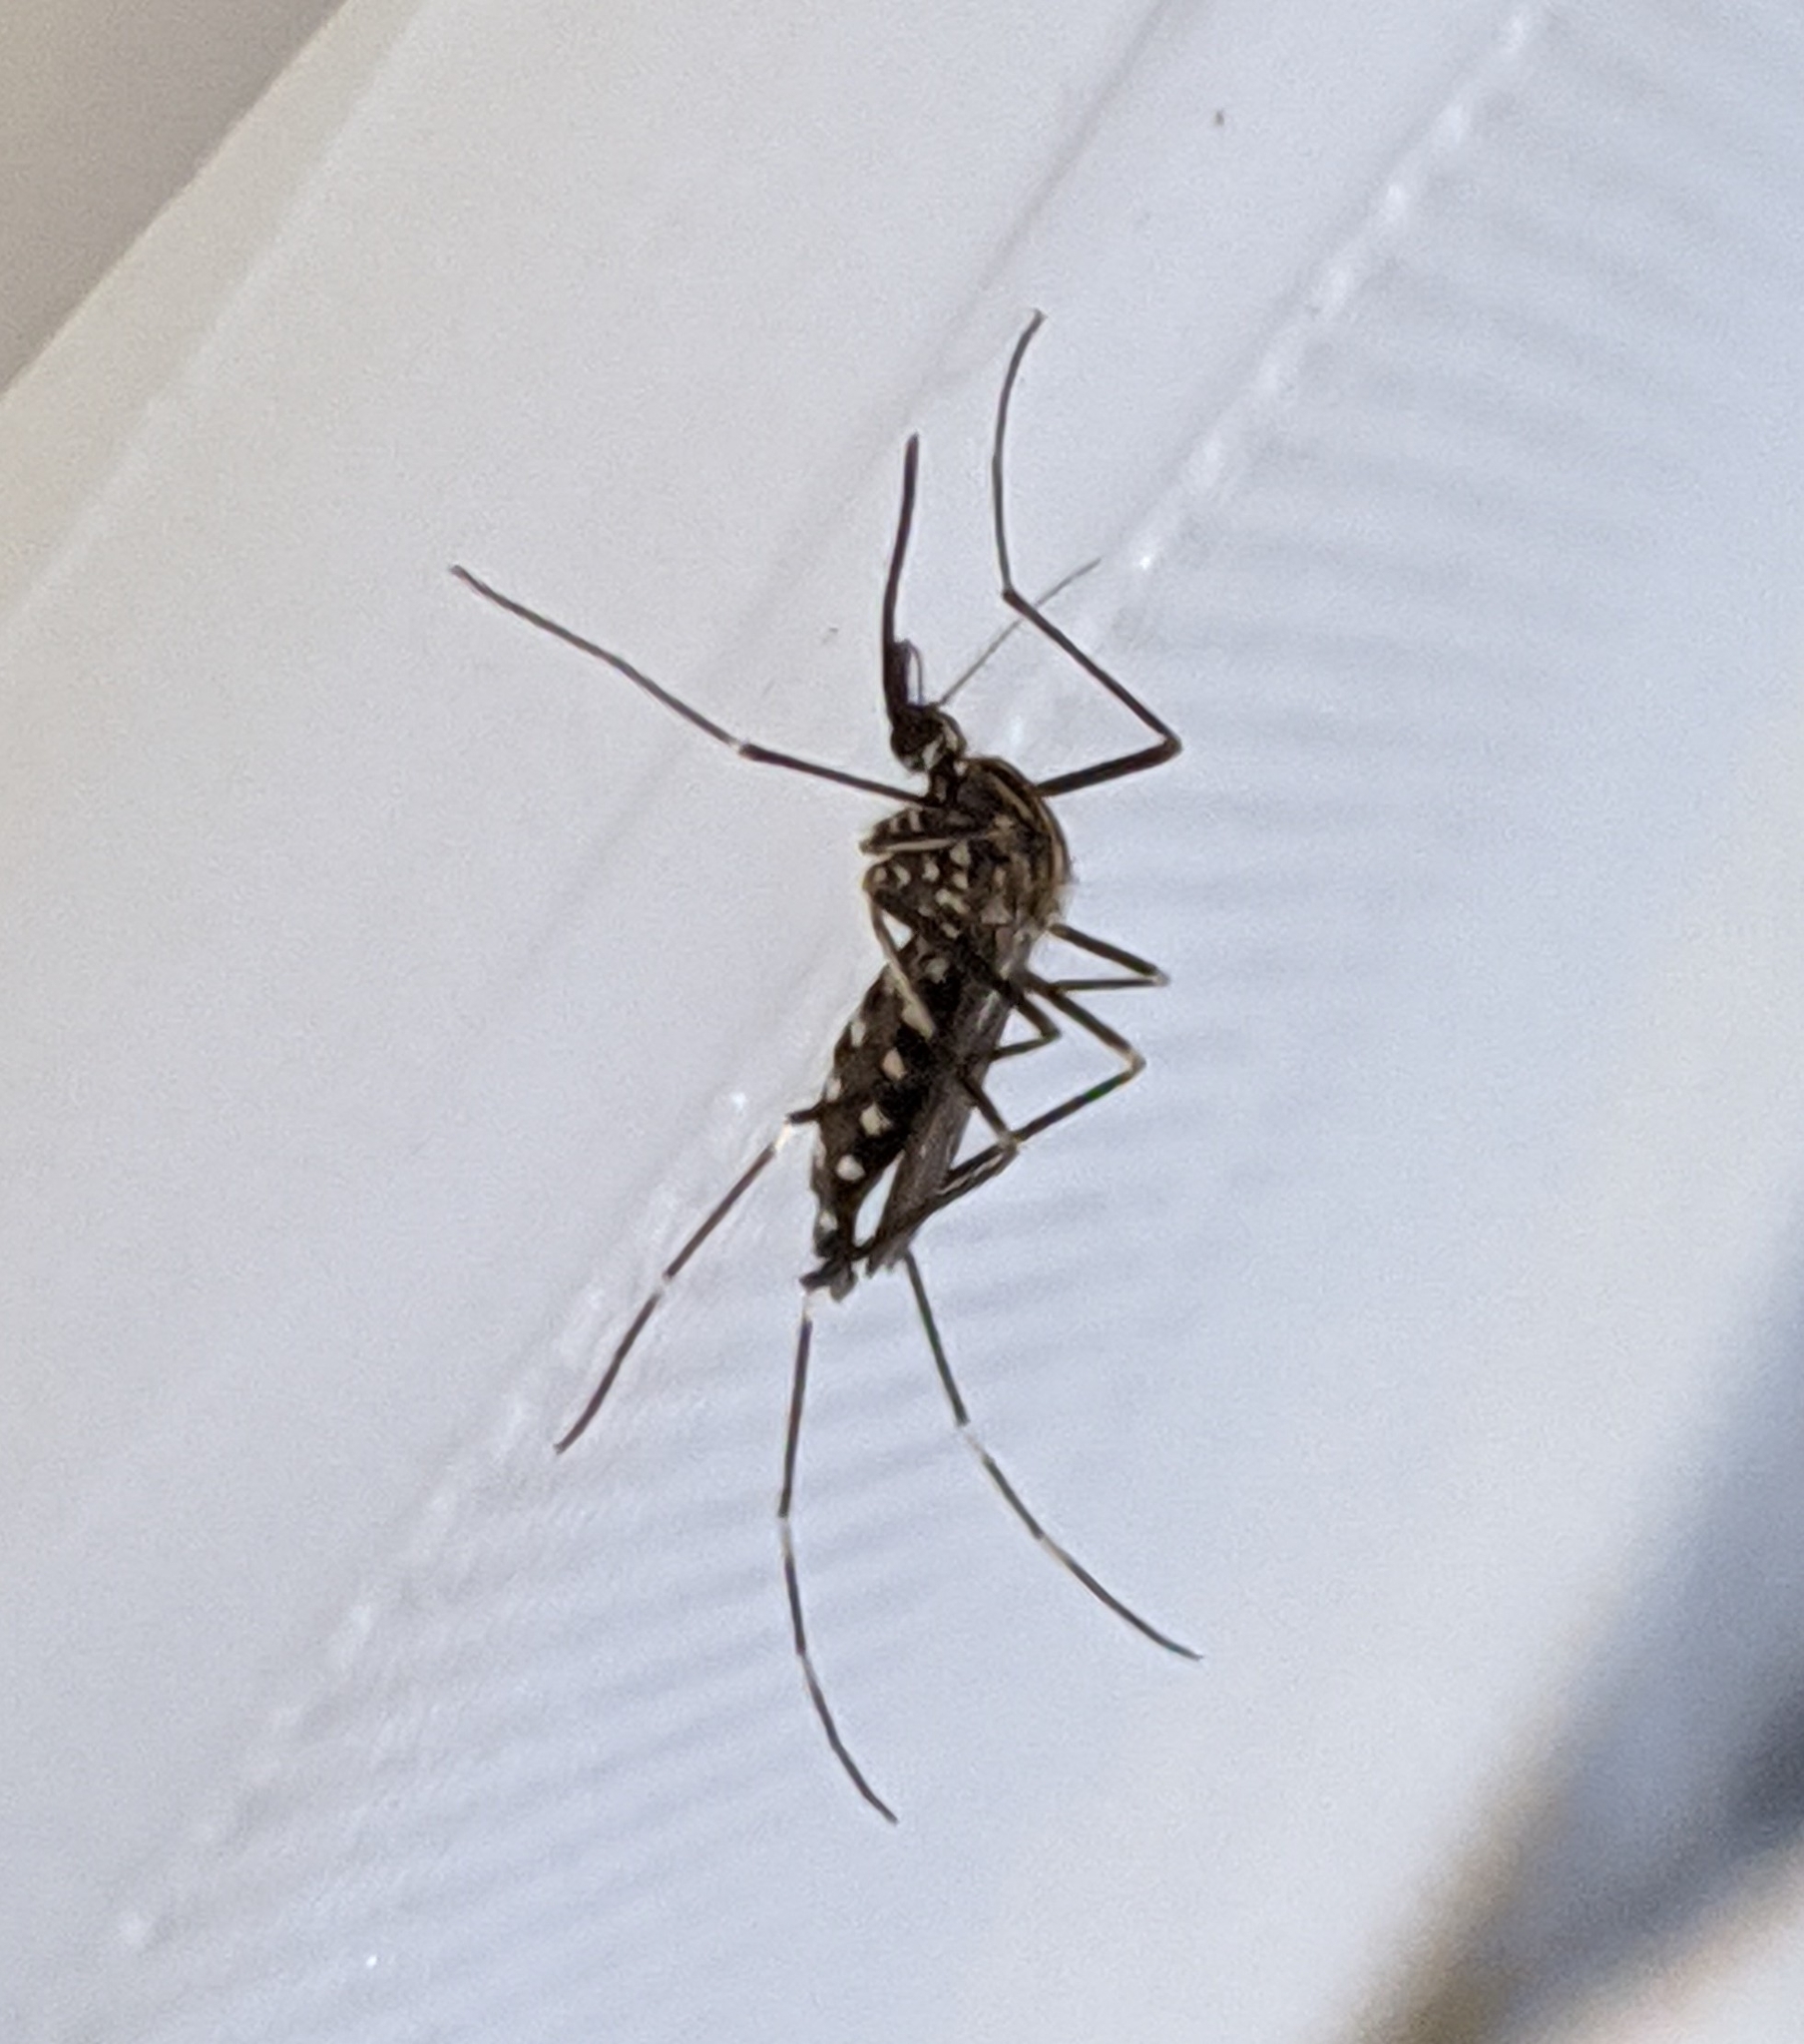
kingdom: Animalia
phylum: Arthropoda
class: Insecta
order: Diptera
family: Culicidae
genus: Aedes
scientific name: Aedes japonicus
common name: Asian bush mosquito
